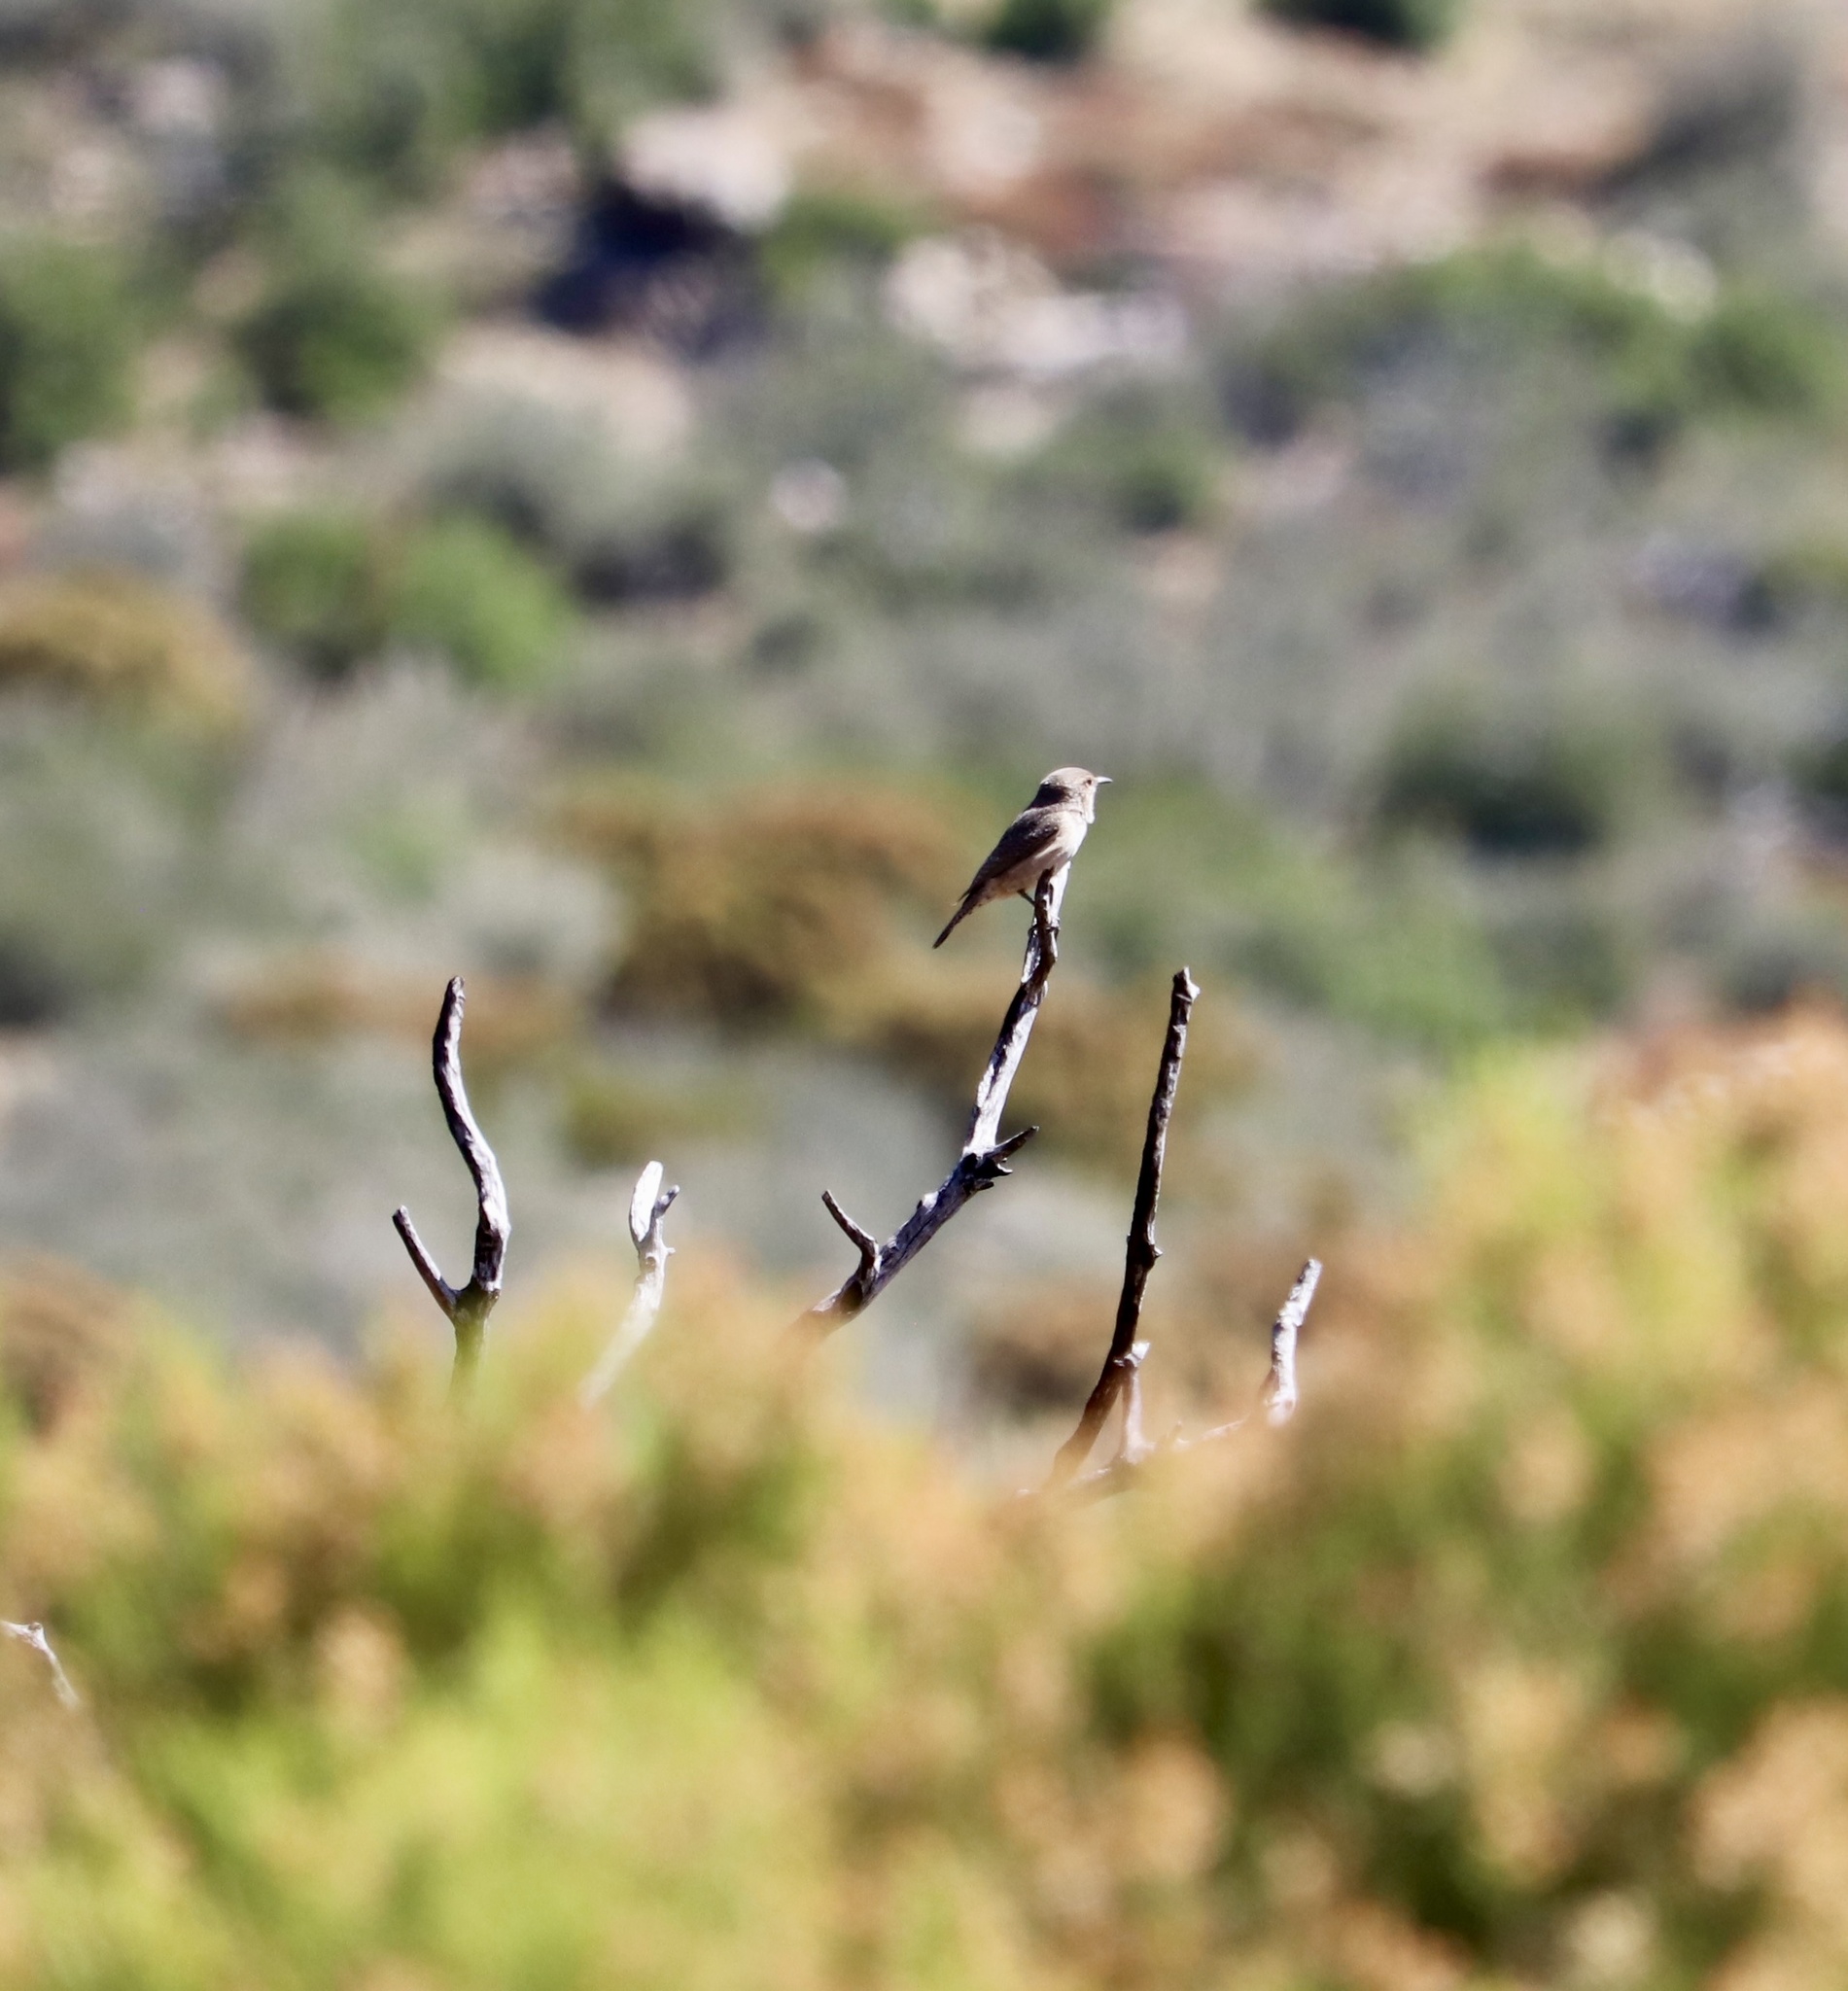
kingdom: Animalia
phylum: Chordata
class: Aves
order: Passeriformes
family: Troglodytidae
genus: Salpinctes
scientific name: Salpinctes obsoletus
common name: Rock wren
